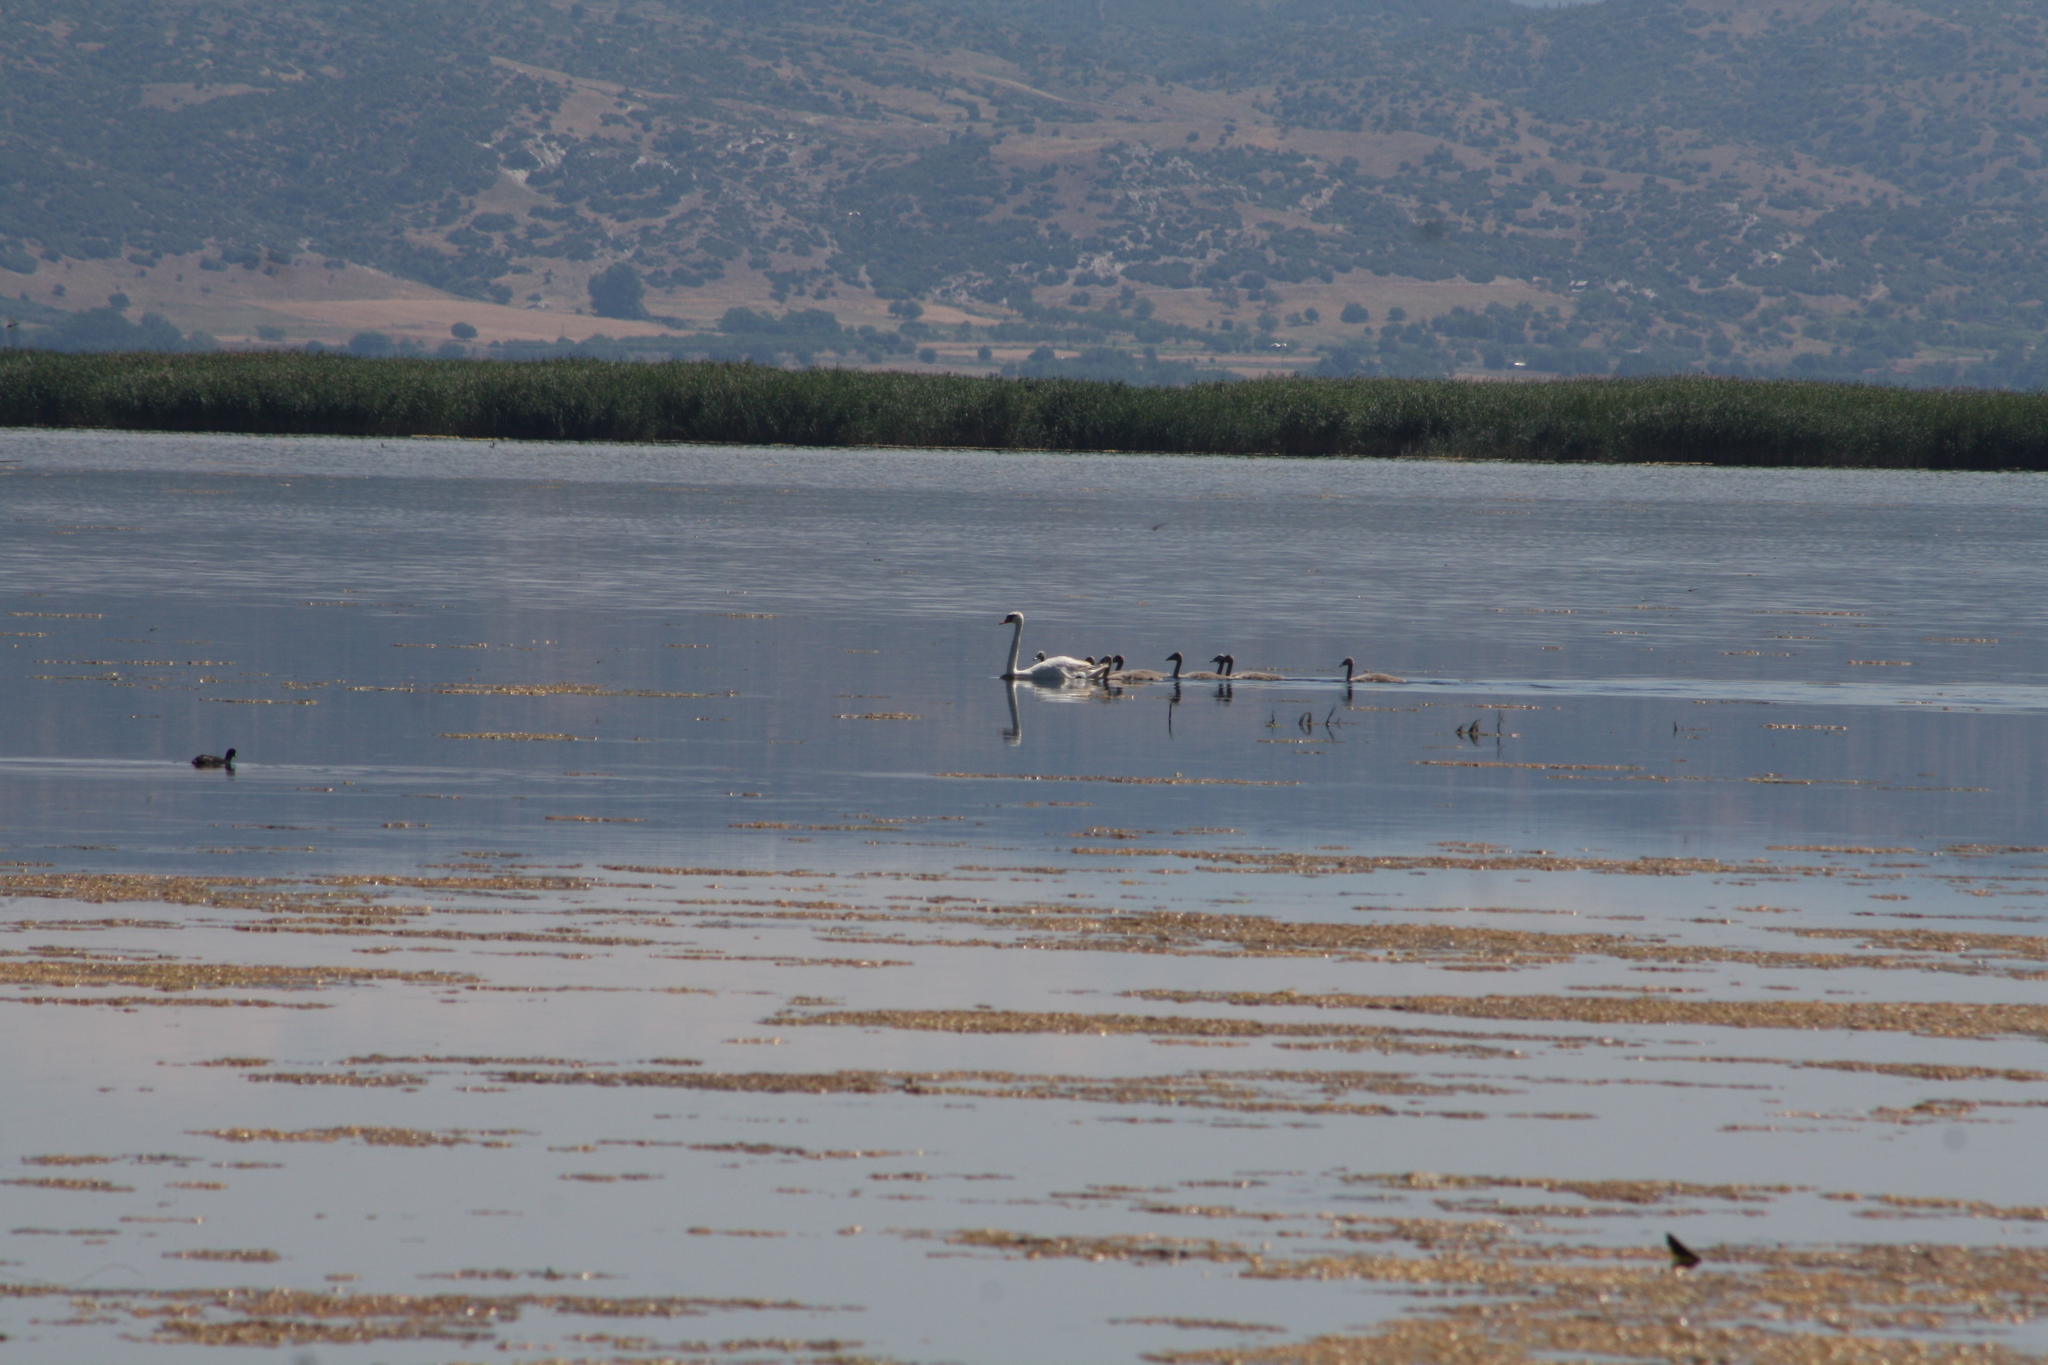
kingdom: Animalia
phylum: Chordata
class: Aves
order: Anseriformes
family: Anatidae
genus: Cygnus
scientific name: Cygnus olor
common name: Mute swan
